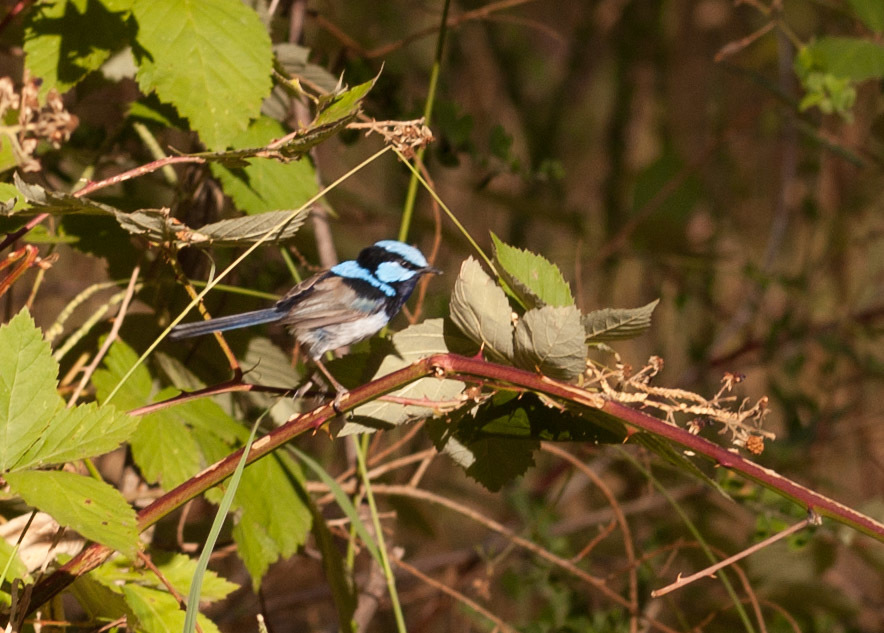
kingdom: Animalia
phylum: Chordata
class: Aves
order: Passeriformes
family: Maluridae
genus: Malurus
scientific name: Malurus cyaneus
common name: Superb fairywren
